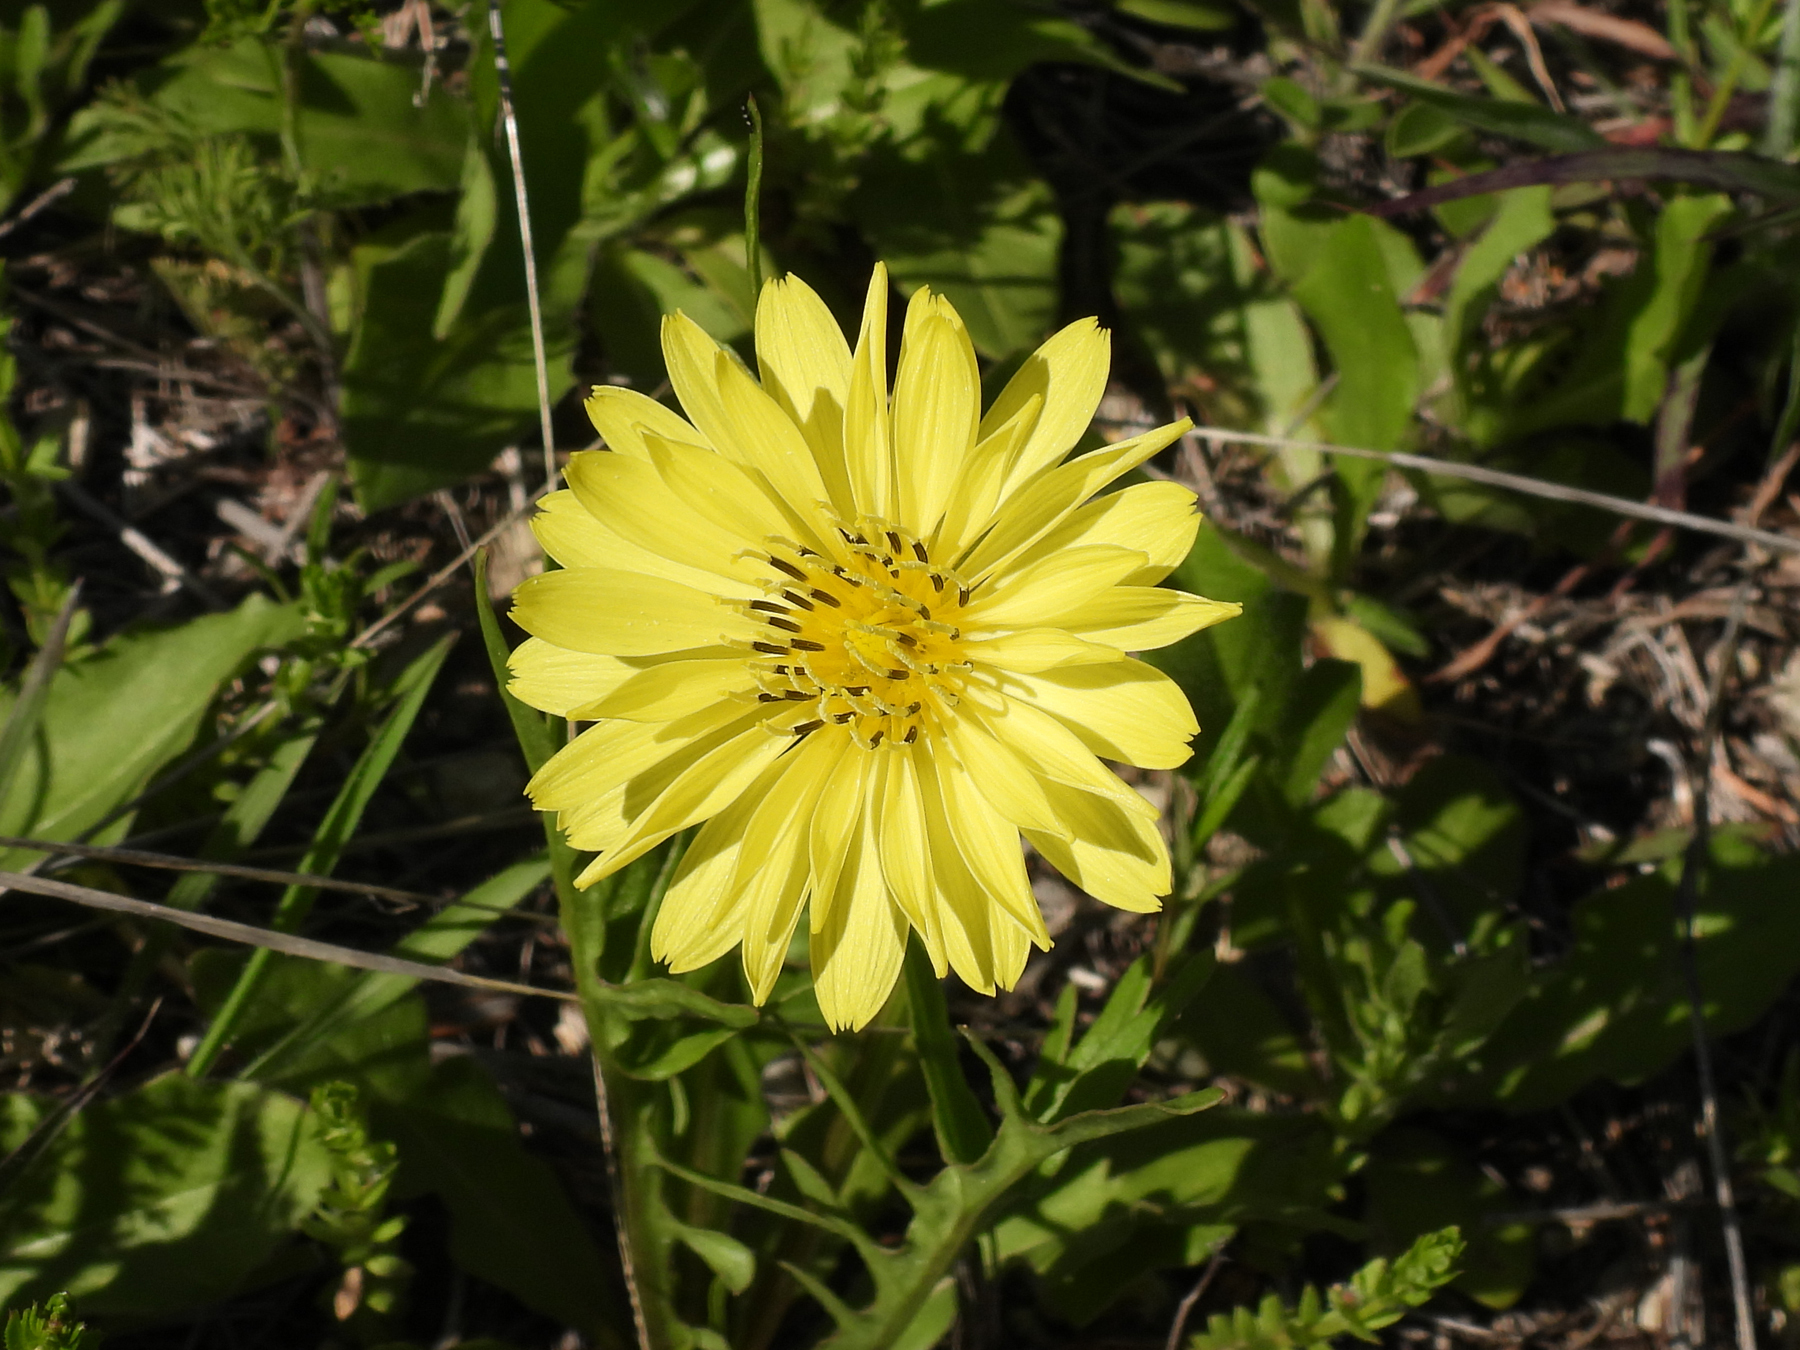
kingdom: Plantae
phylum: Tracheophyta
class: Magnoliopsida
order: Asterales
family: Asteraceae
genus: Pyrrhopappus
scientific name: Pyrrhopappus pauciflorus
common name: Texas false dandelion
